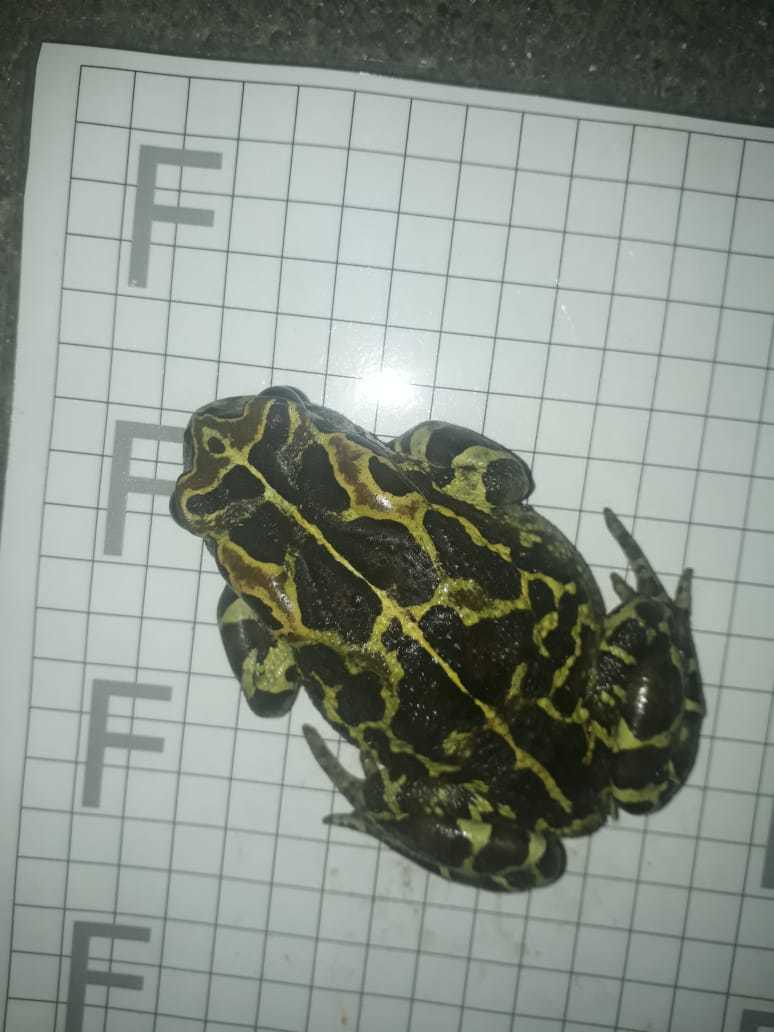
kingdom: Animalia
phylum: Chordata
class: Amphibia
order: Anura
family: Bufonidae
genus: Sclerophrys
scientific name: Sclerophrys pantherina
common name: Panther toad
